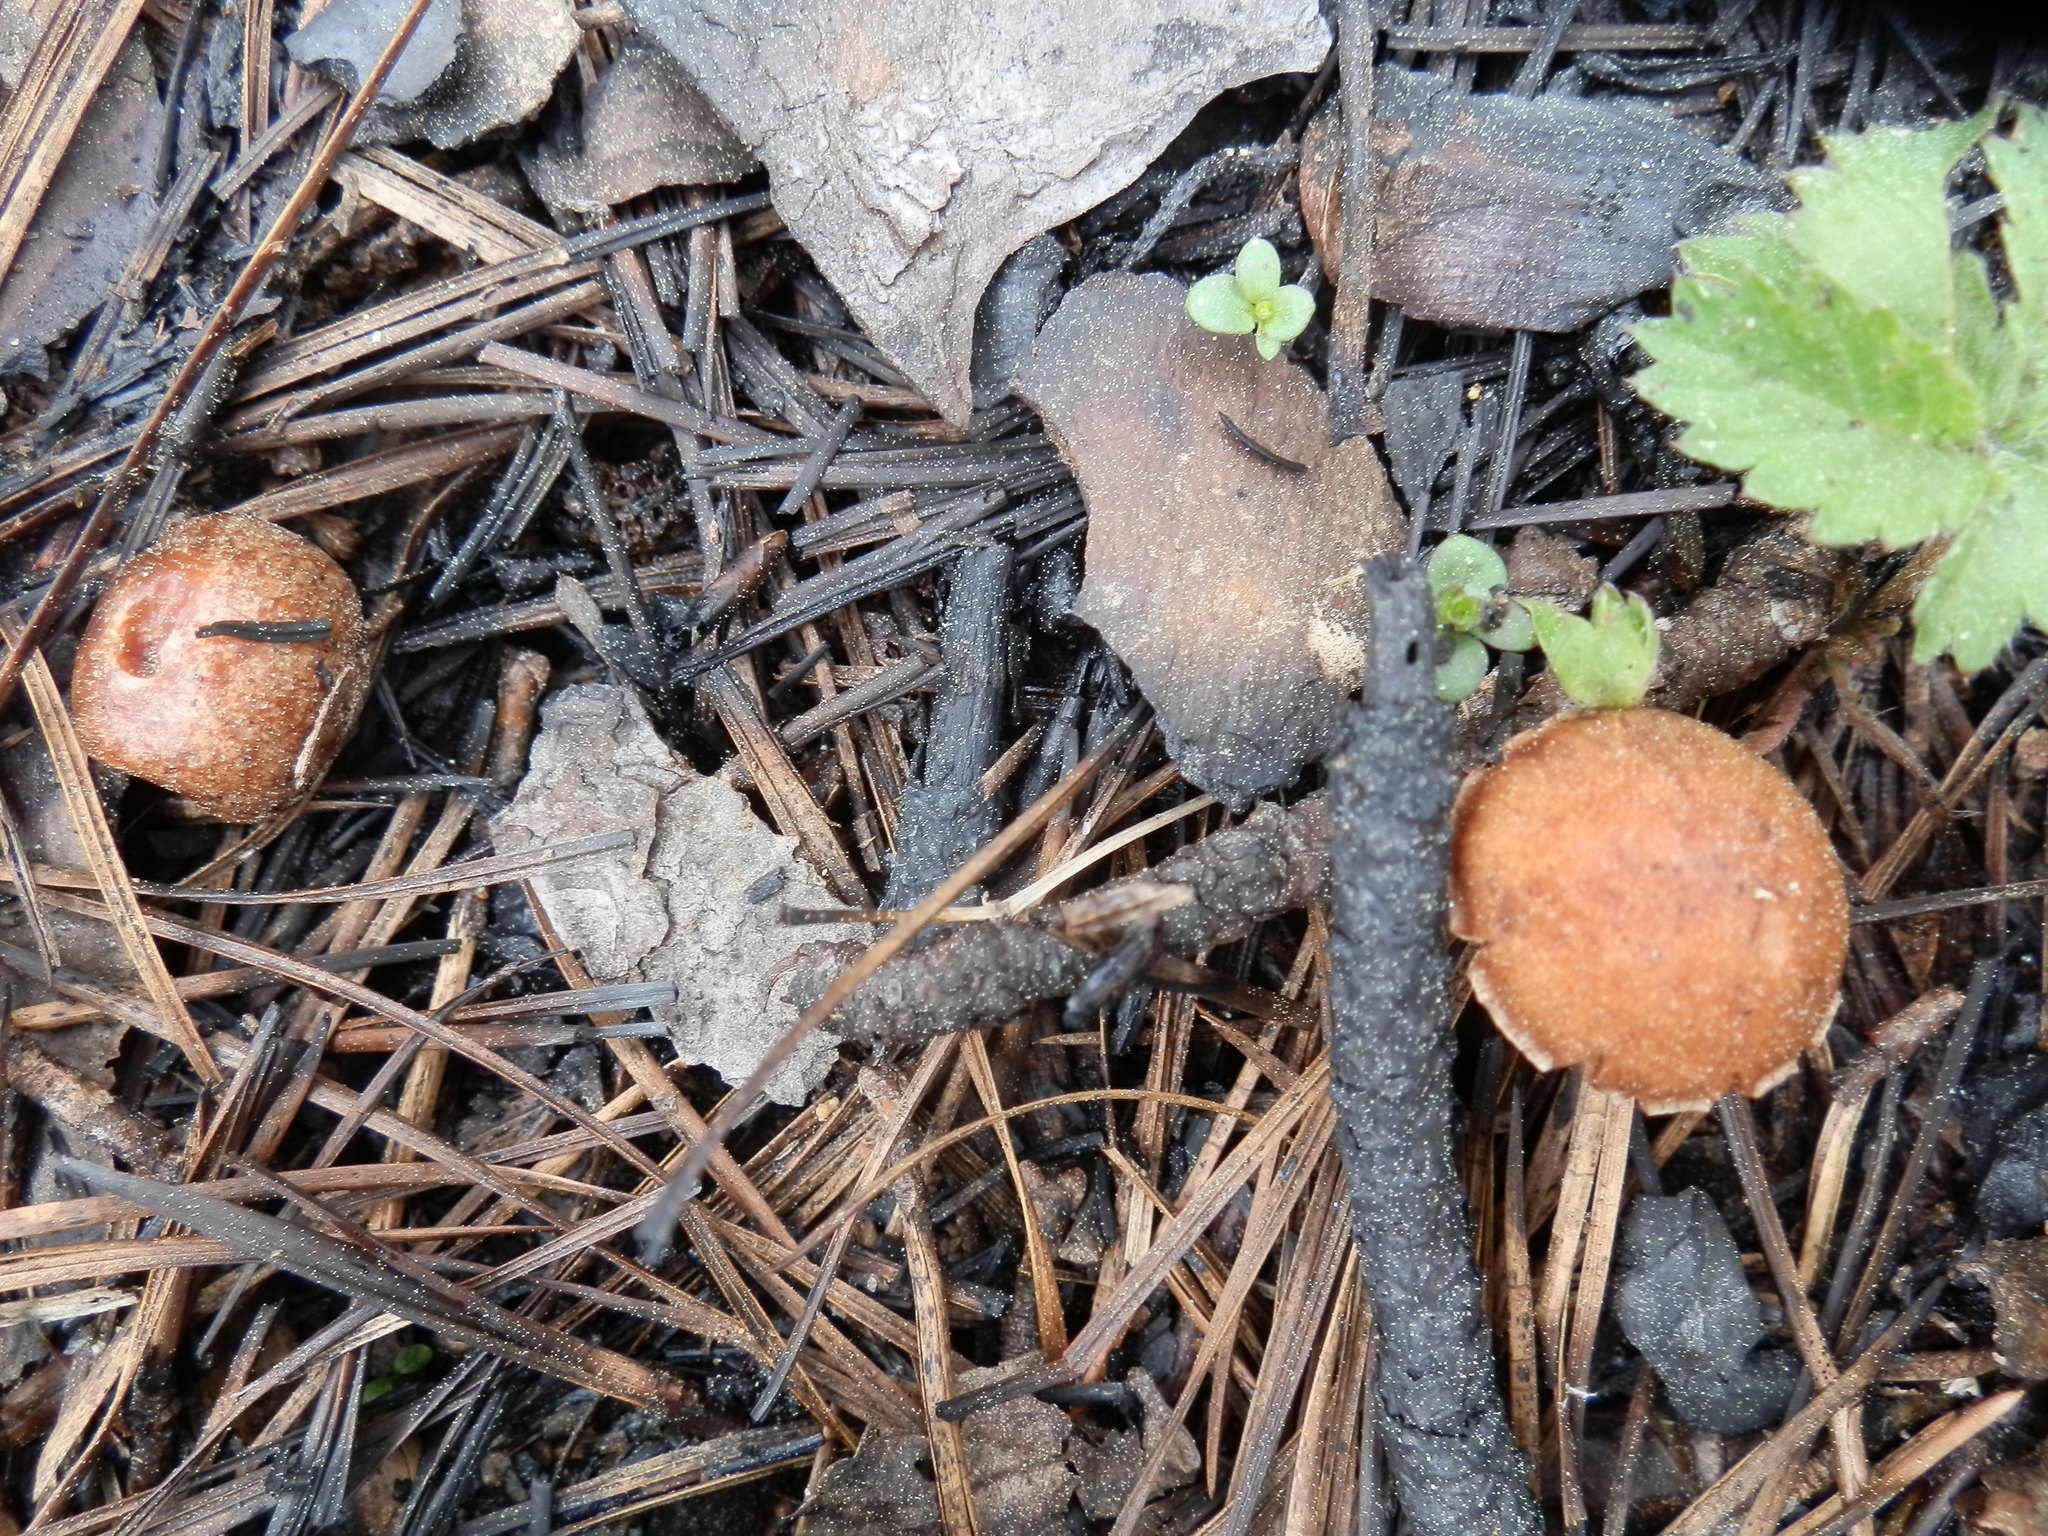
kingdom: Fungi
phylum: Basidiomycota
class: Agaricomycetes
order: Agaricales
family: Crassisporiaceae
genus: Crassisporium
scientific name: Crassisporium funariophilum
